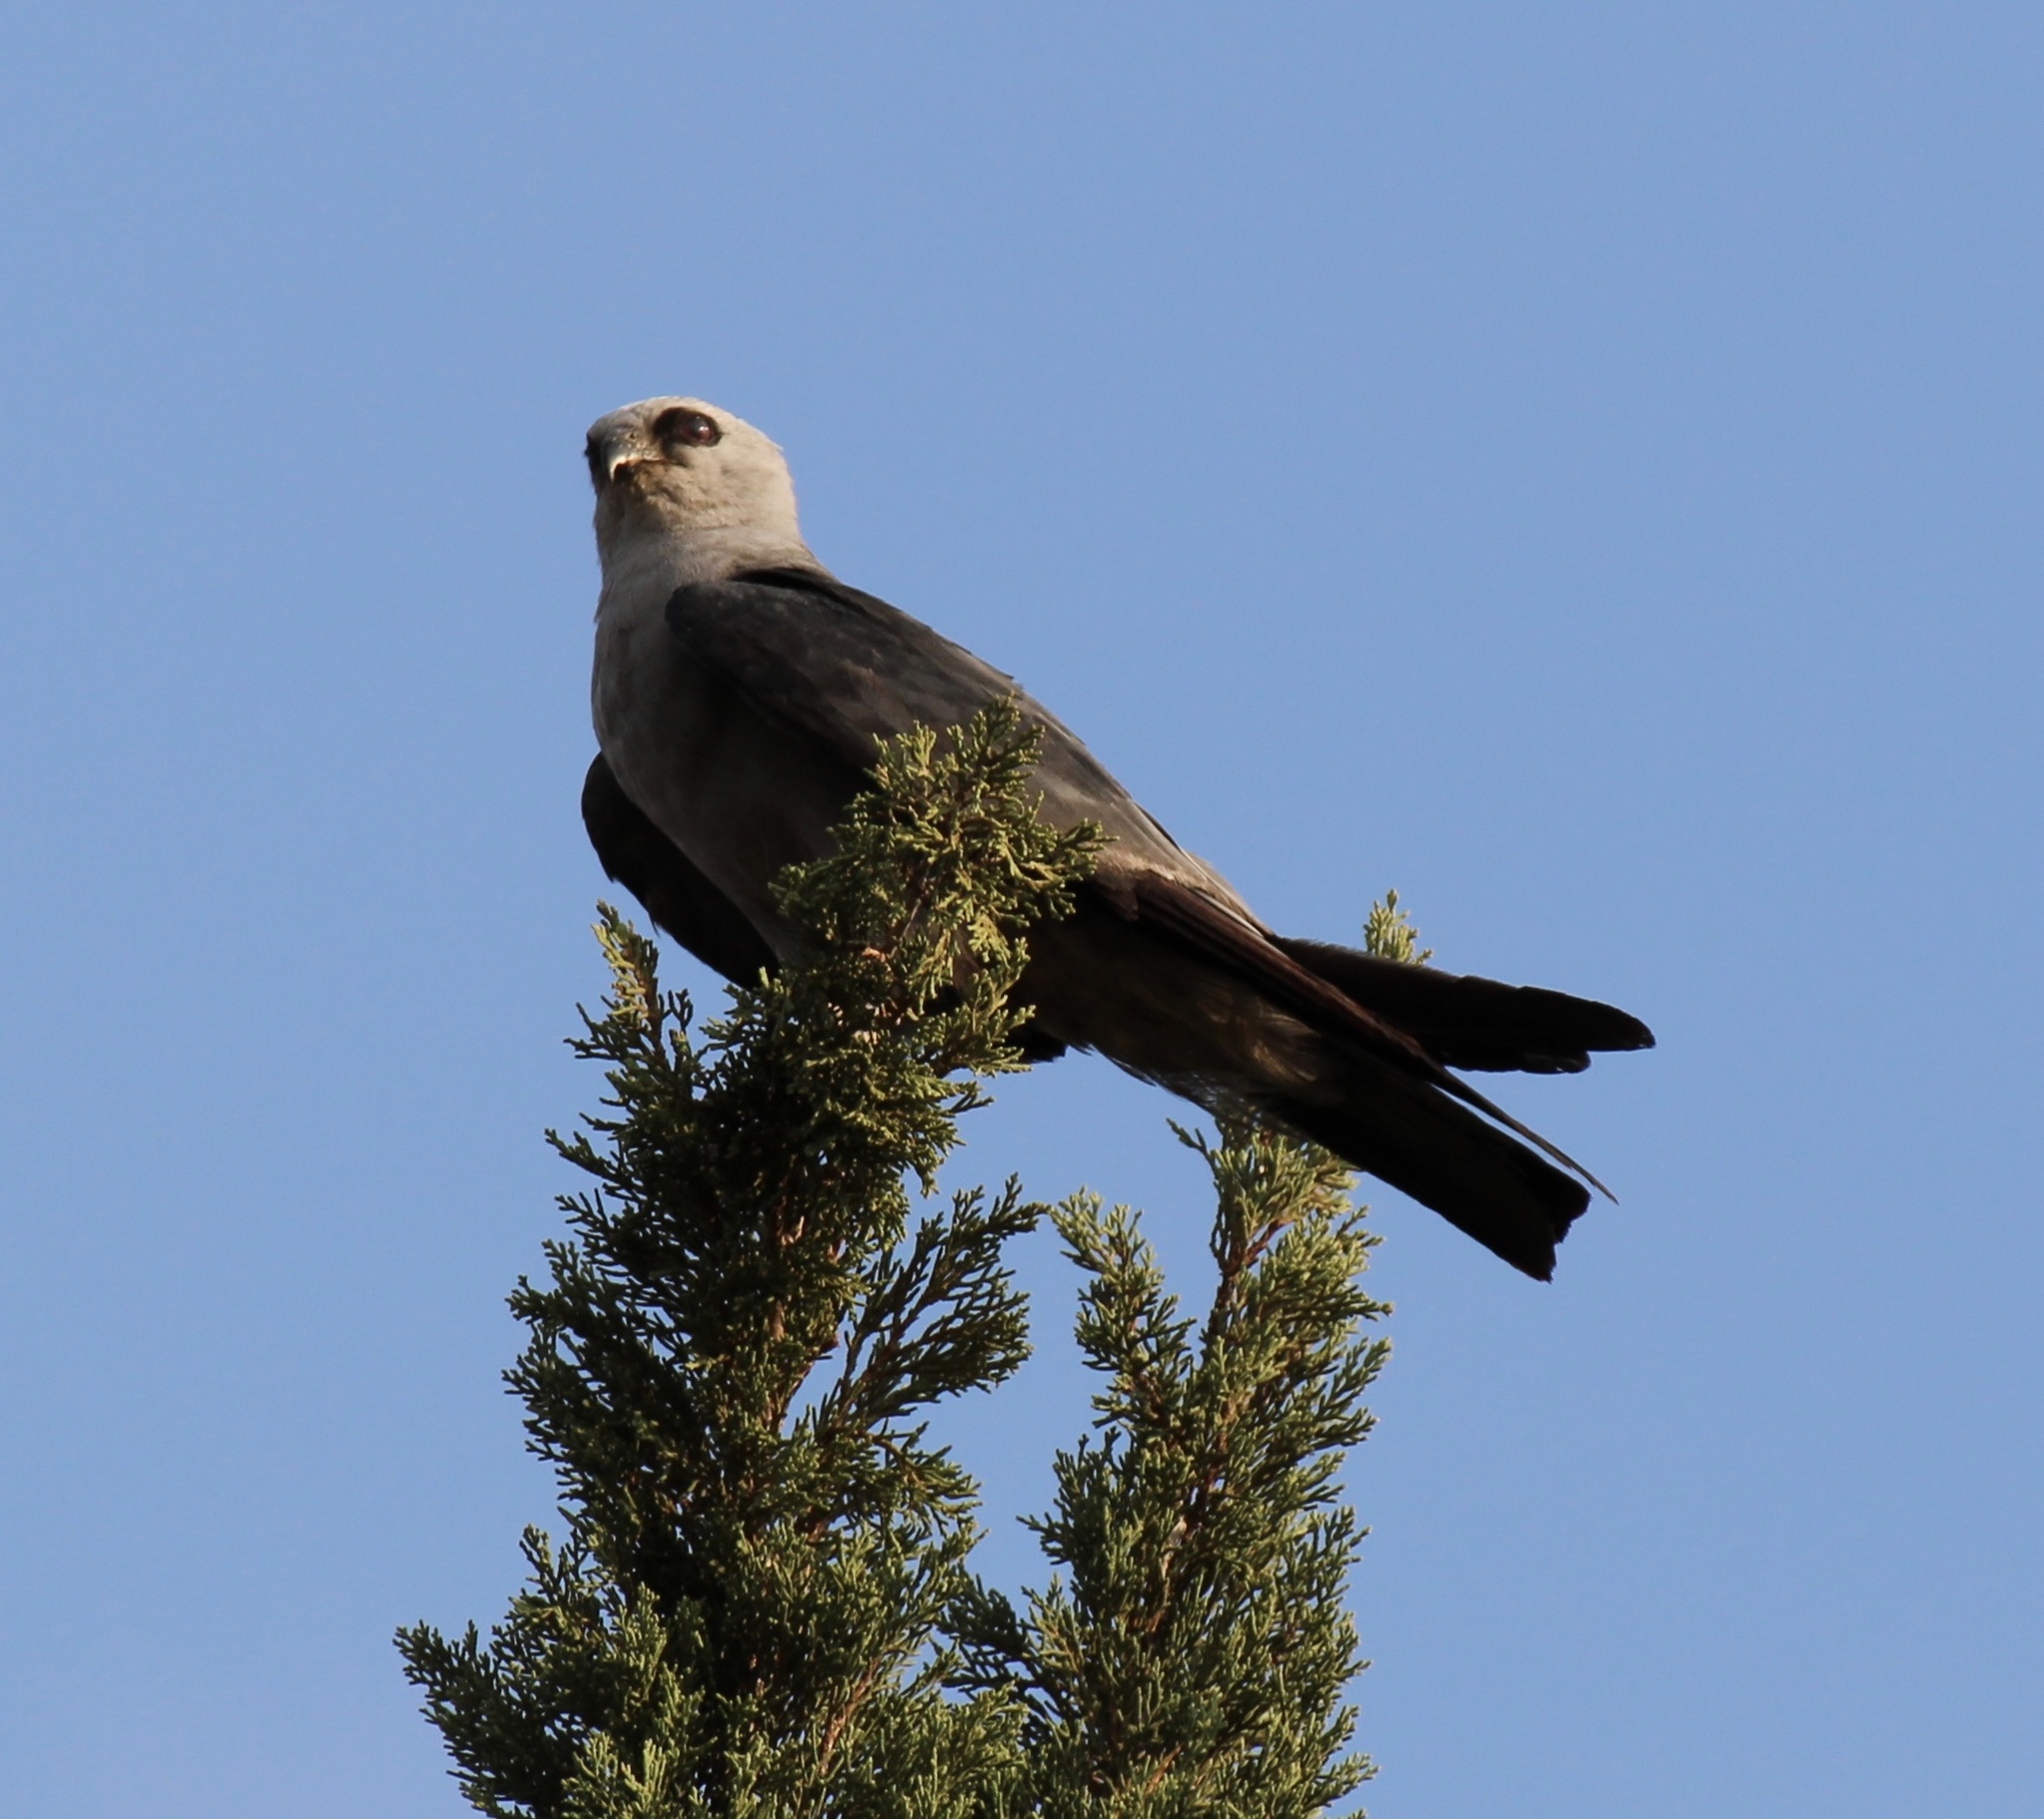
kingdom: Animalia
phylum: Chordata
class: Aves
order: Accipitriformes
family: Accipitridae
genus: Ictinia
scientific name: Ictinia mississippiensis
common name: Mississippi kite
